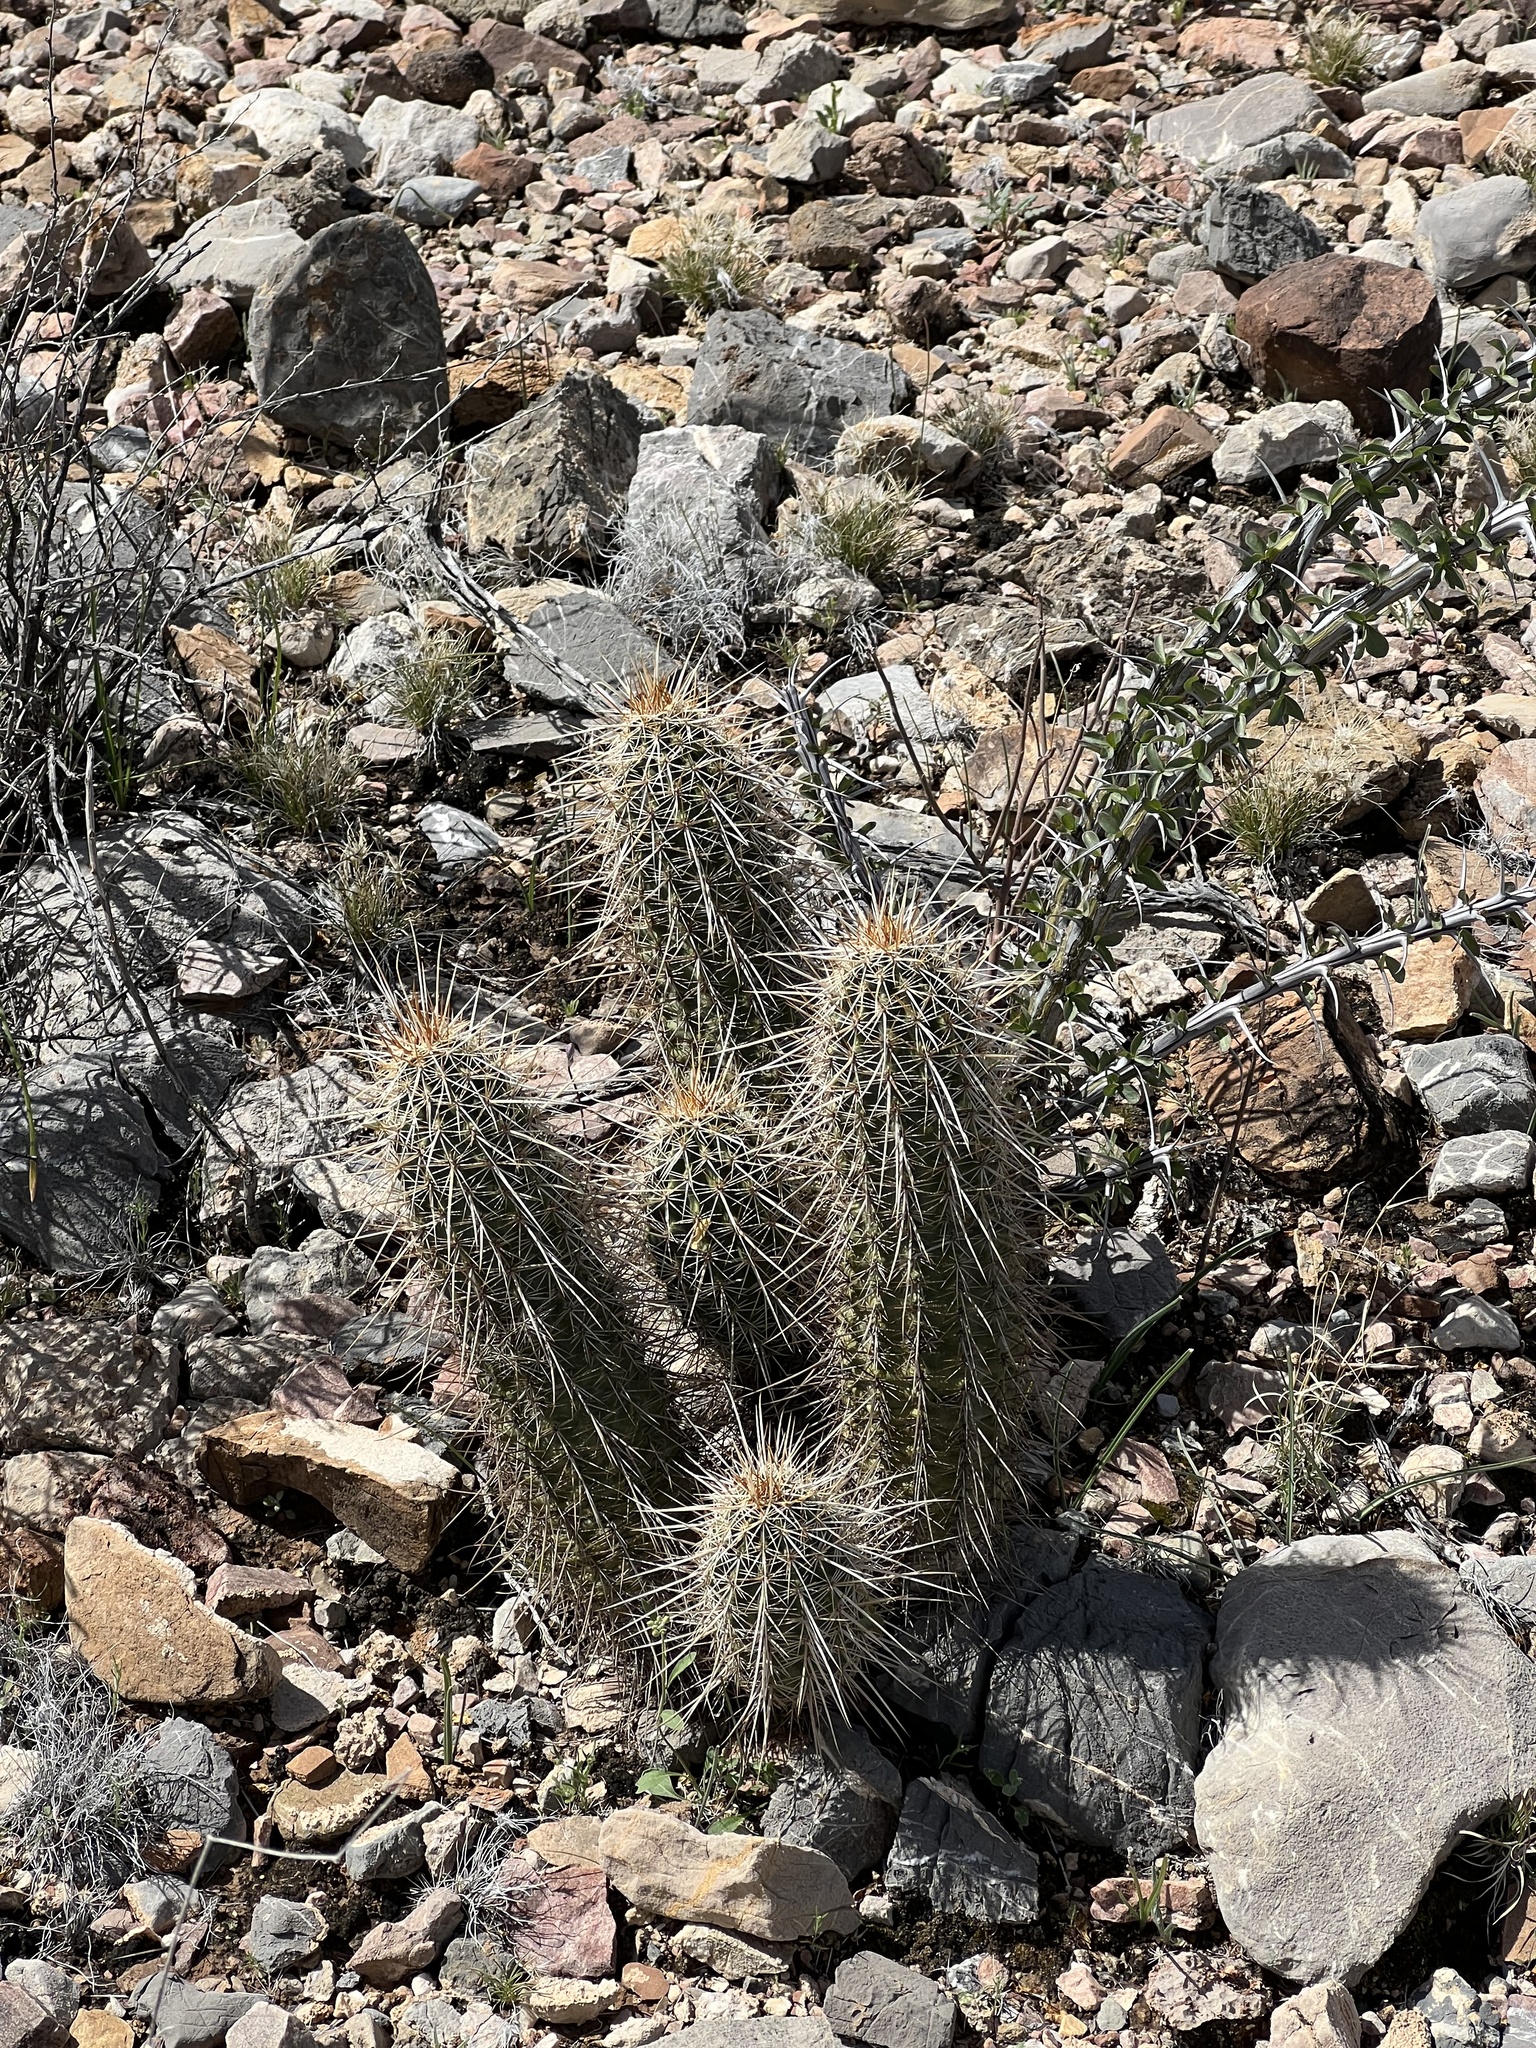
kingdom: Plantae
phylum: Tracheophyta
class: Magnoliopsida
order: Caryophyllales
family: Cactaceae
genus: Echinocereus
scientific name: Echinocereus engelmannii
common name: Engelmann's hedgehog cactus
